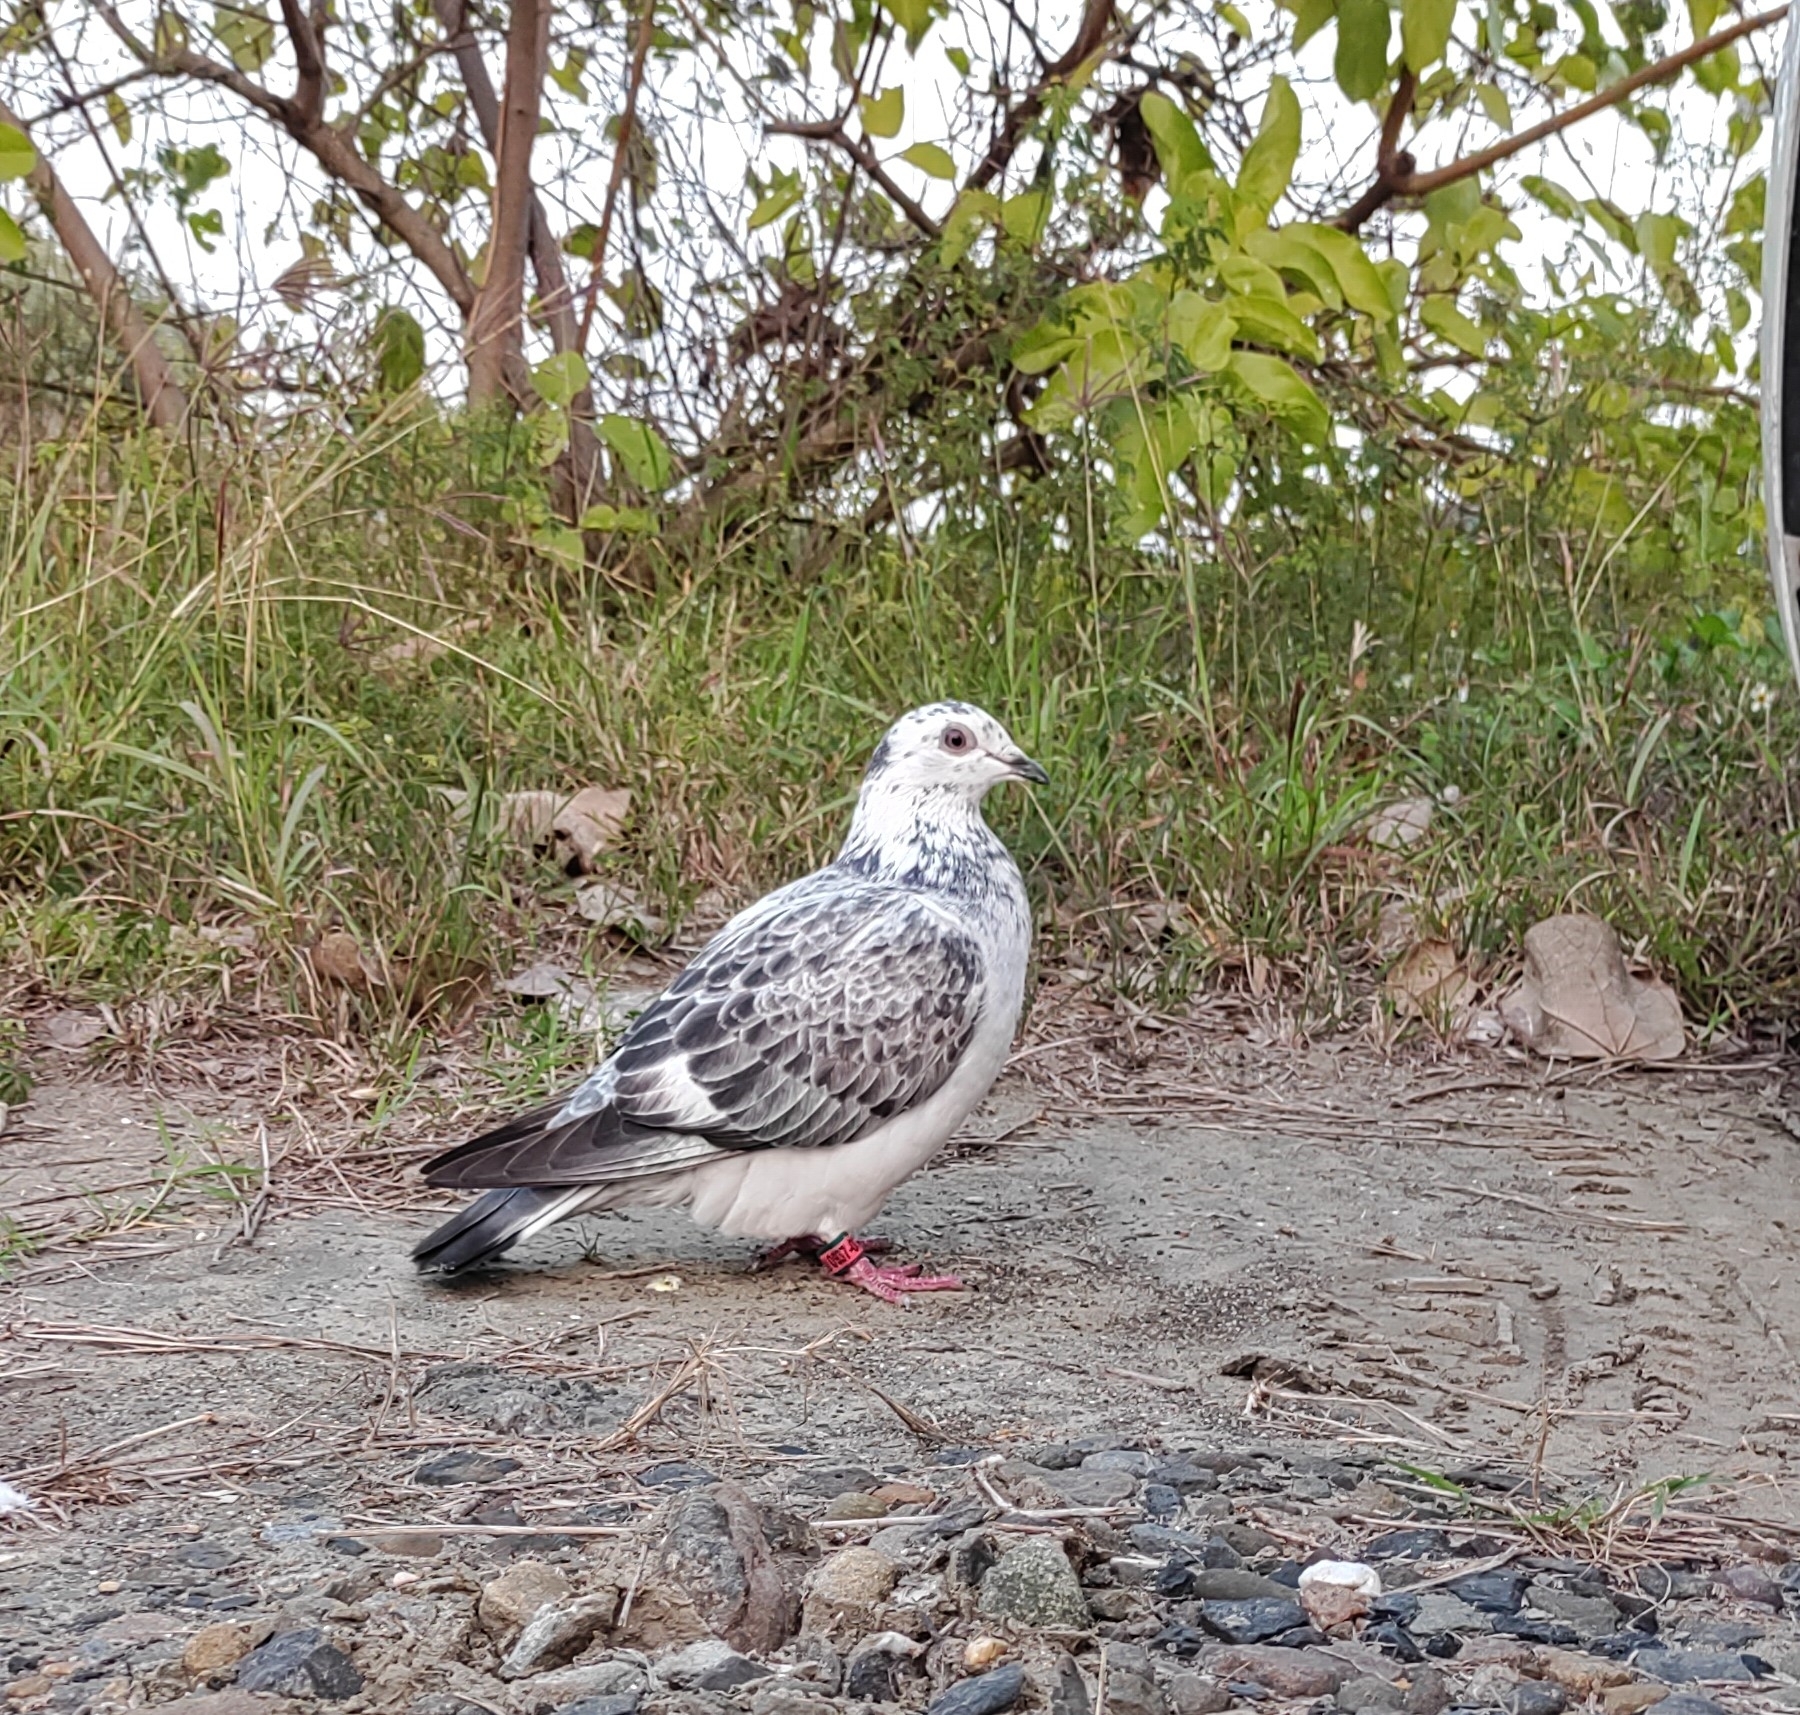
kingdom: Animalia
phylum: Chordata
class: Aves
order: Columbiformes
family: Columbidae
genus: Columba
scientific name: Columba livia
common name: Rock pigeon
